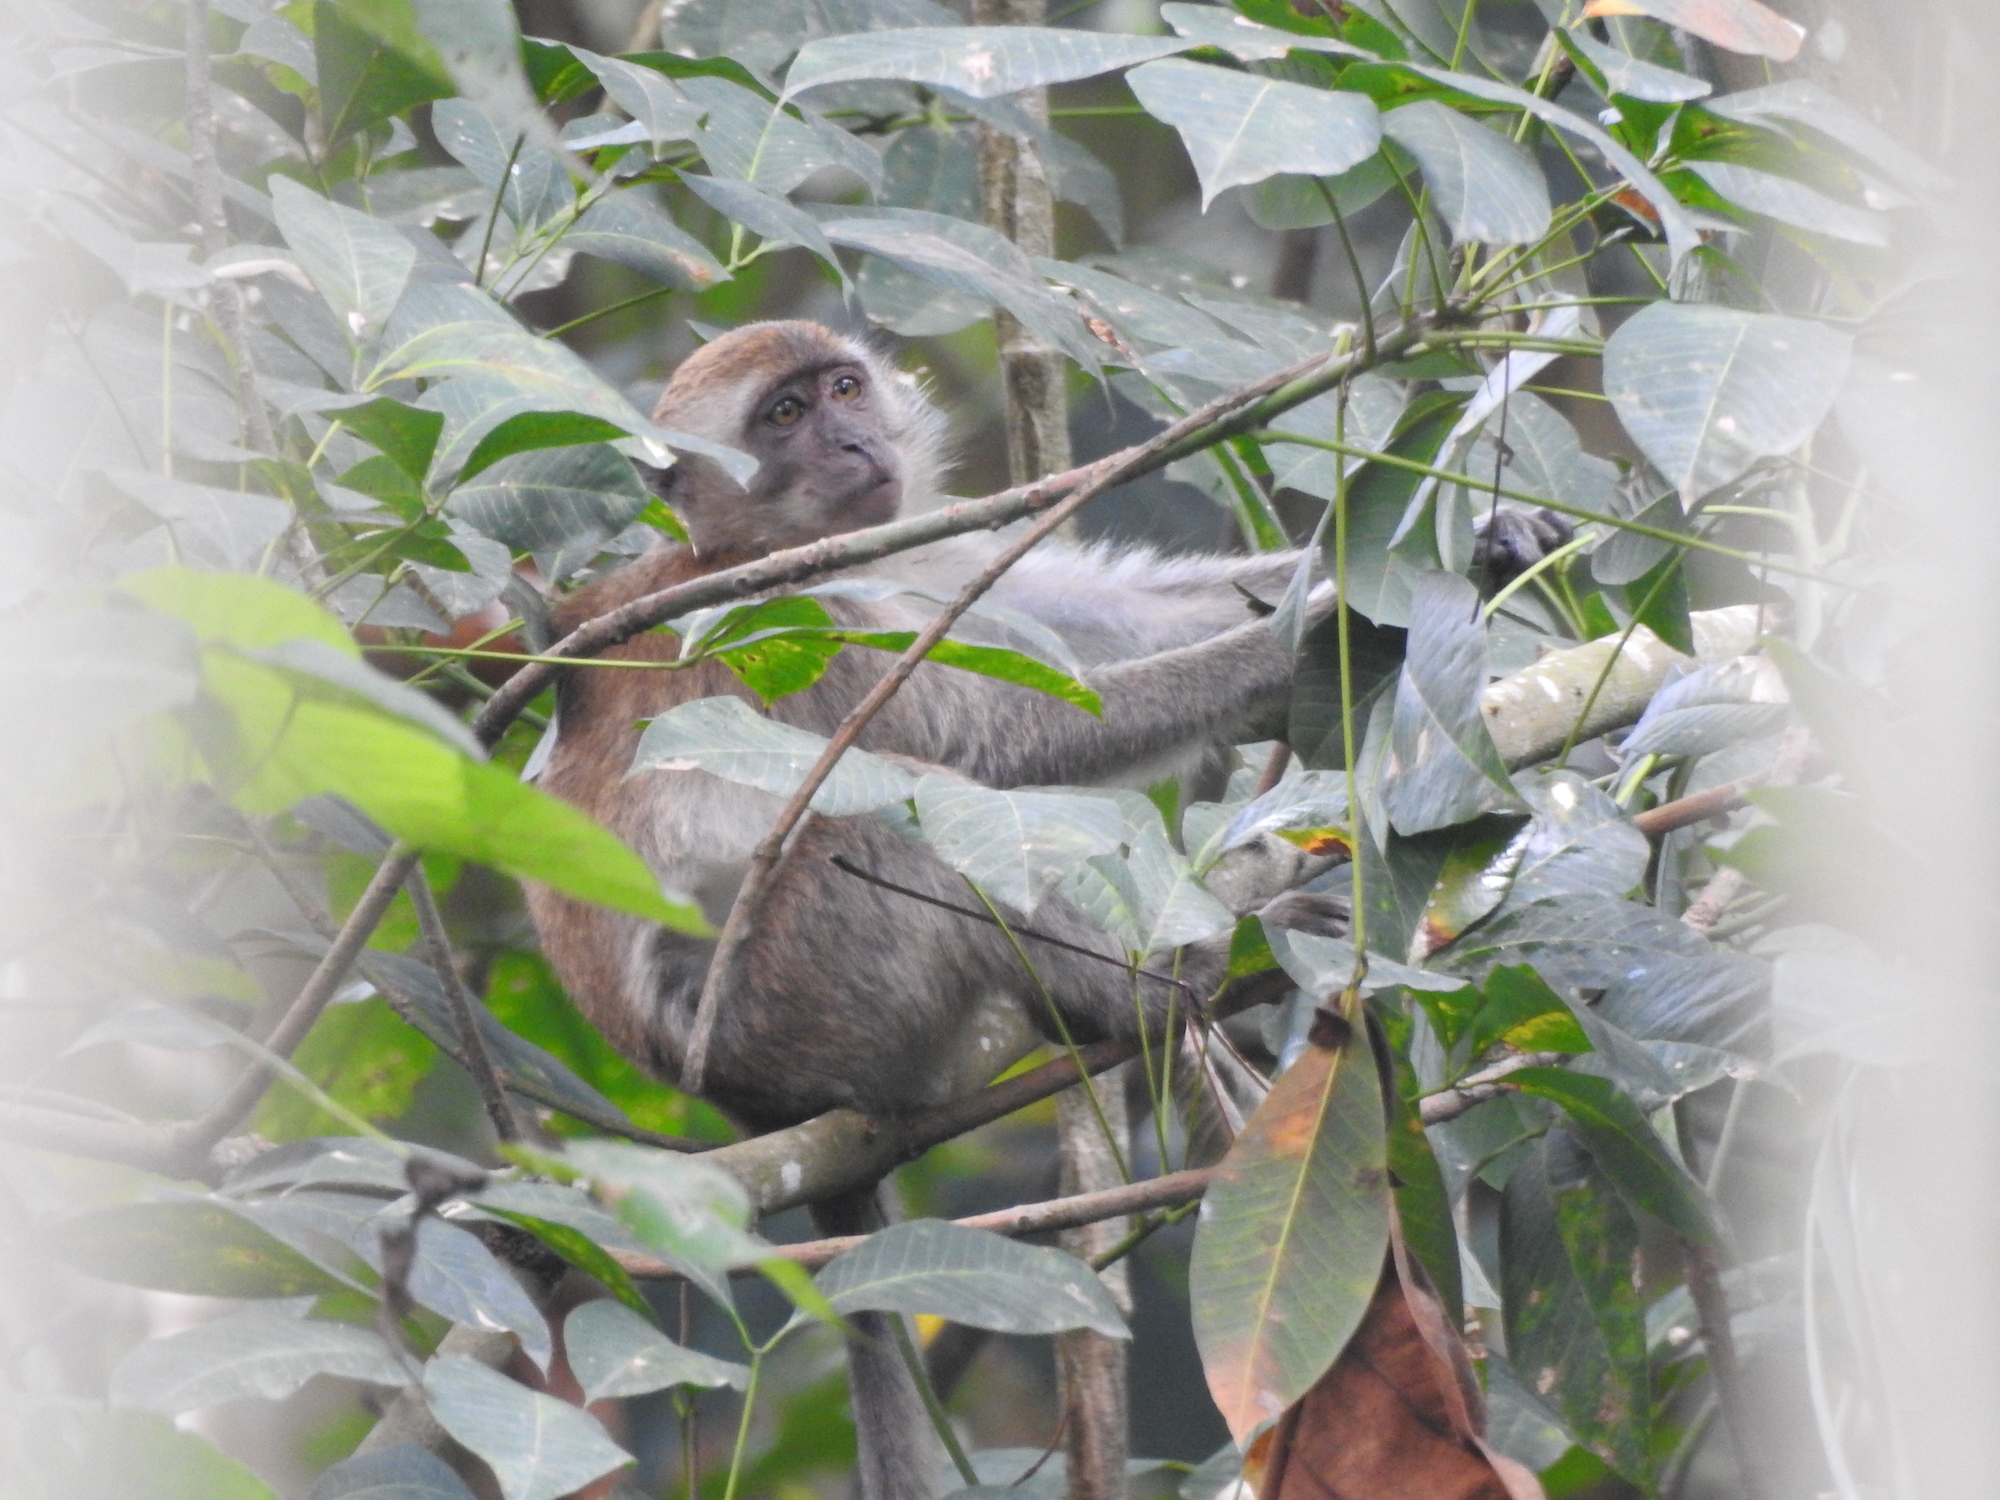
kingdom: Animalia
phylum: Chordata
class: Mammalia
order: Primates
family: Cercopithecidae
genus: Macaca
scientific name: Macaca fascicularis
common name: Crab-eating macaque
